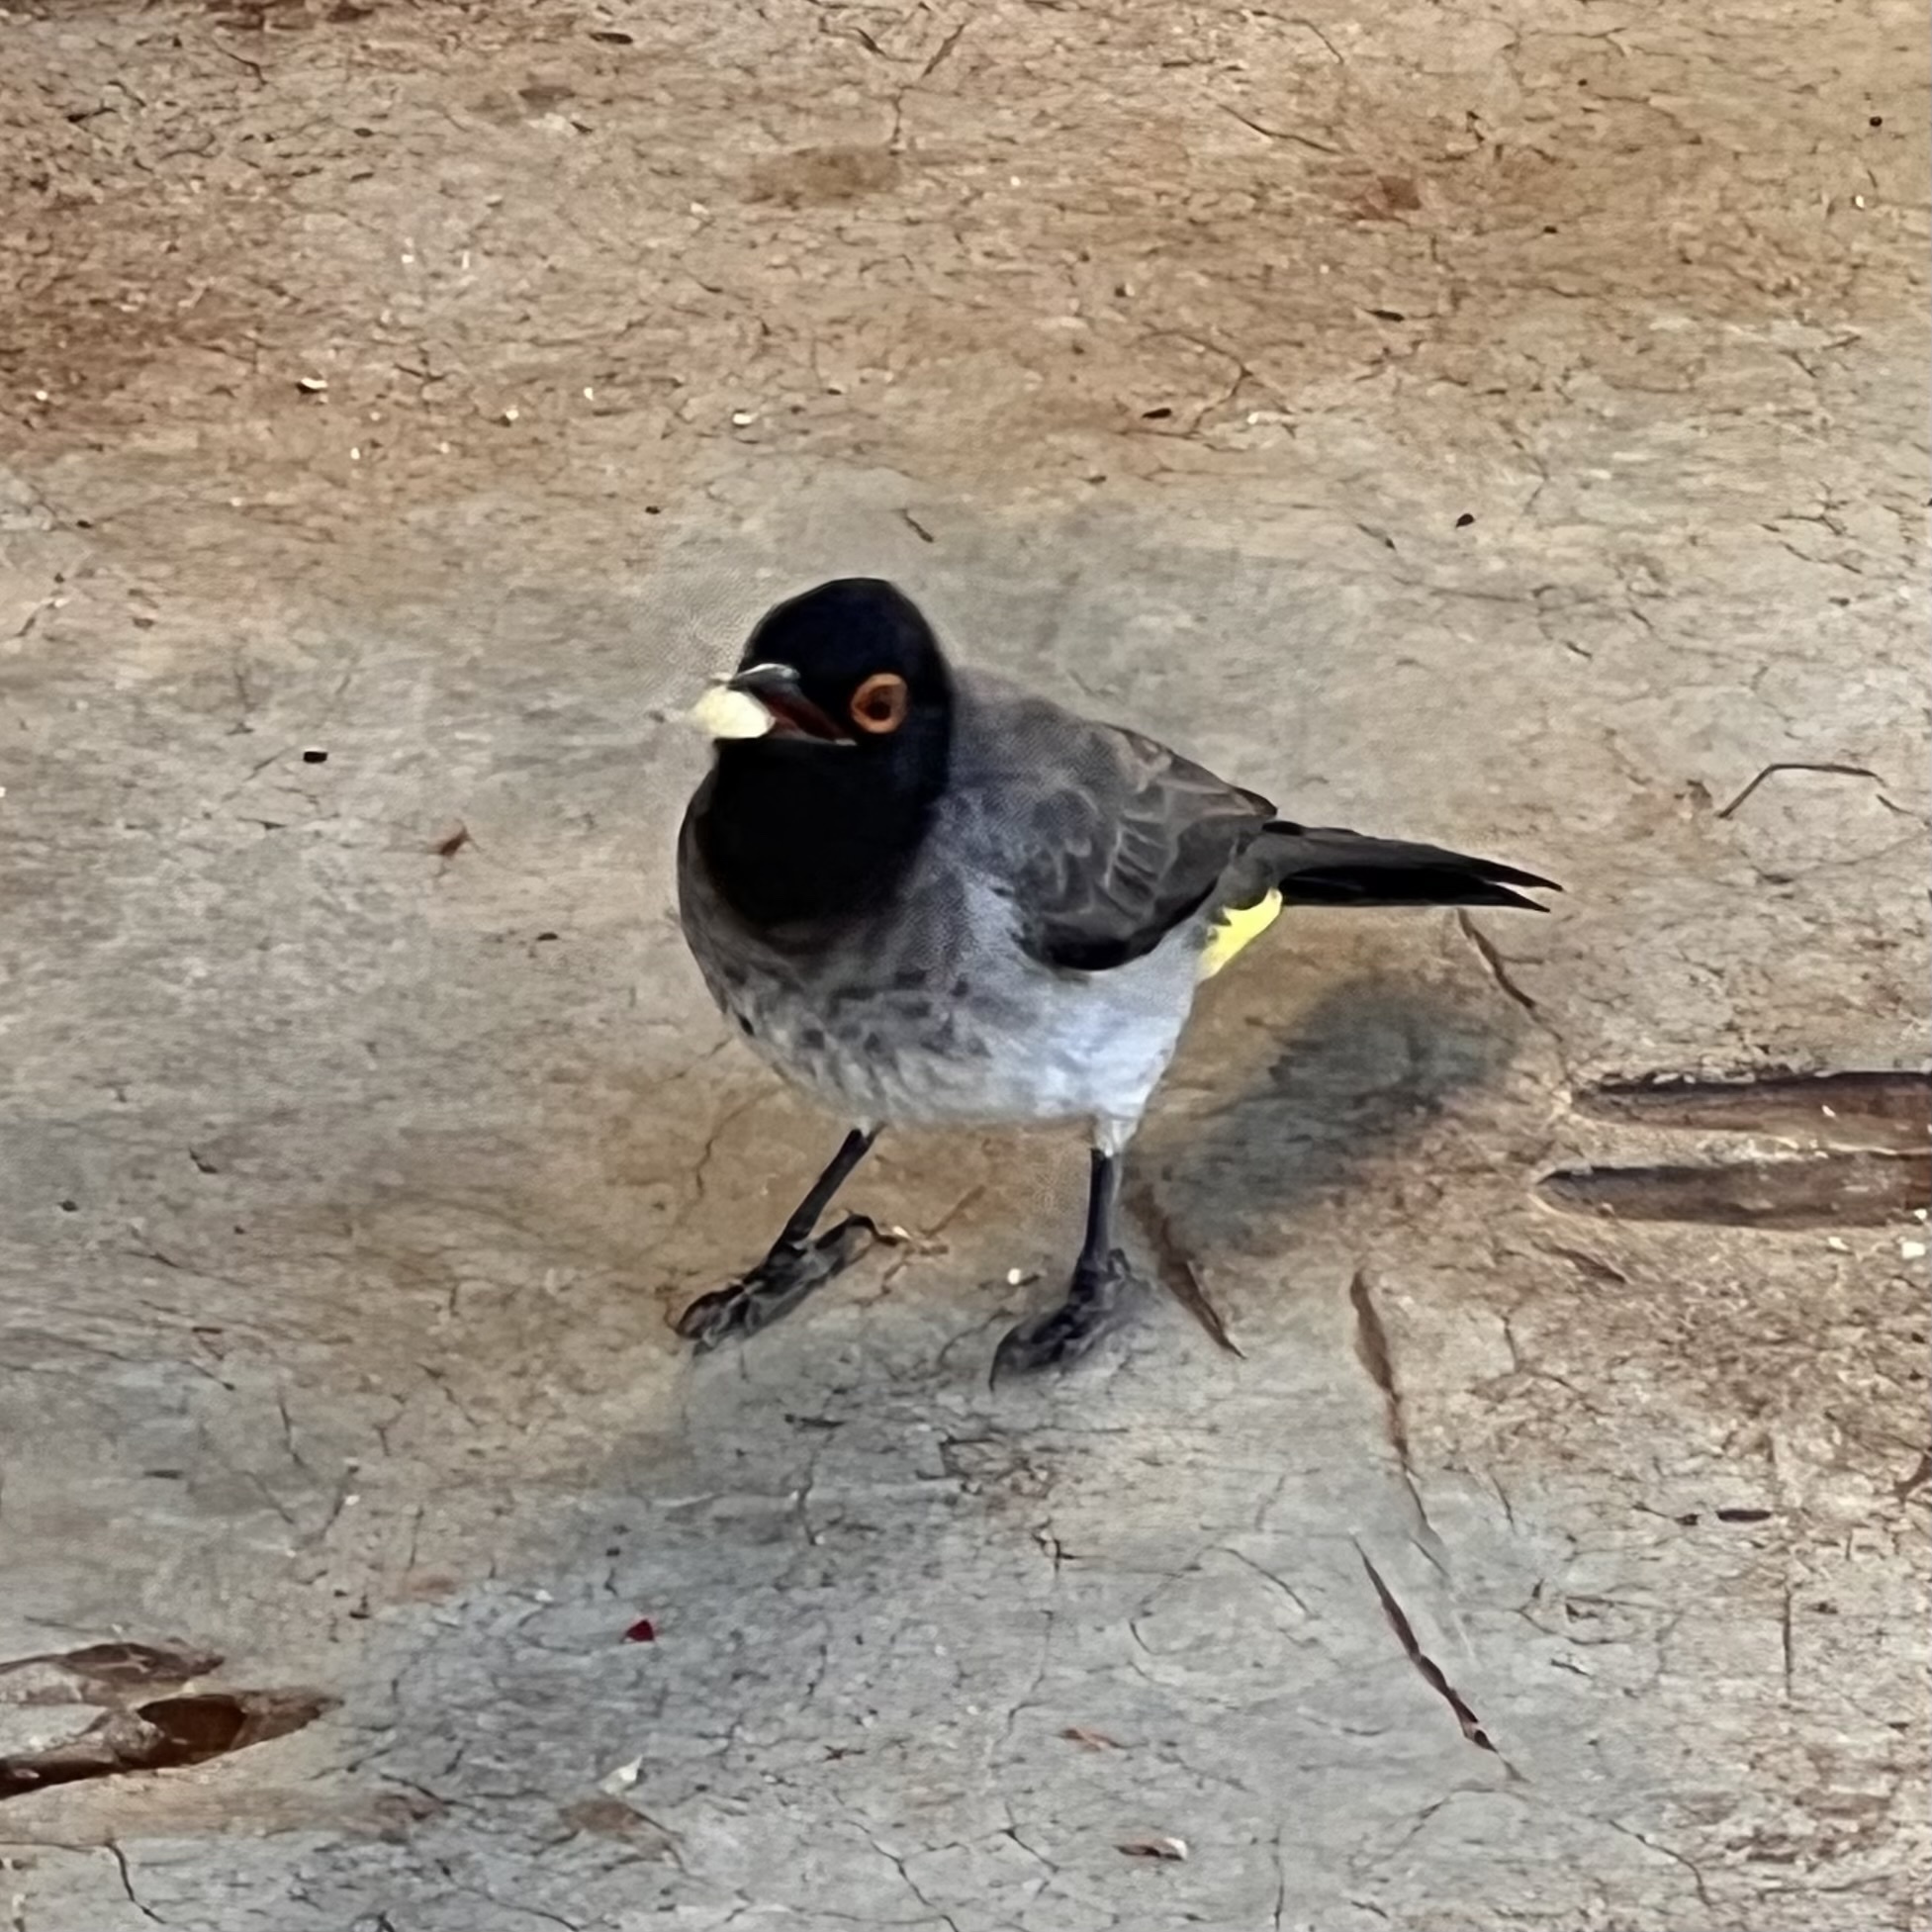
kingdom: Animalia
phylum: Chordata
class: Aves
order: Passeriformes
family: Pycnonotidae
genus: Pycnonotus
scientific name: Pycnonotus nigricans
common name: African red-eyed bulbul
